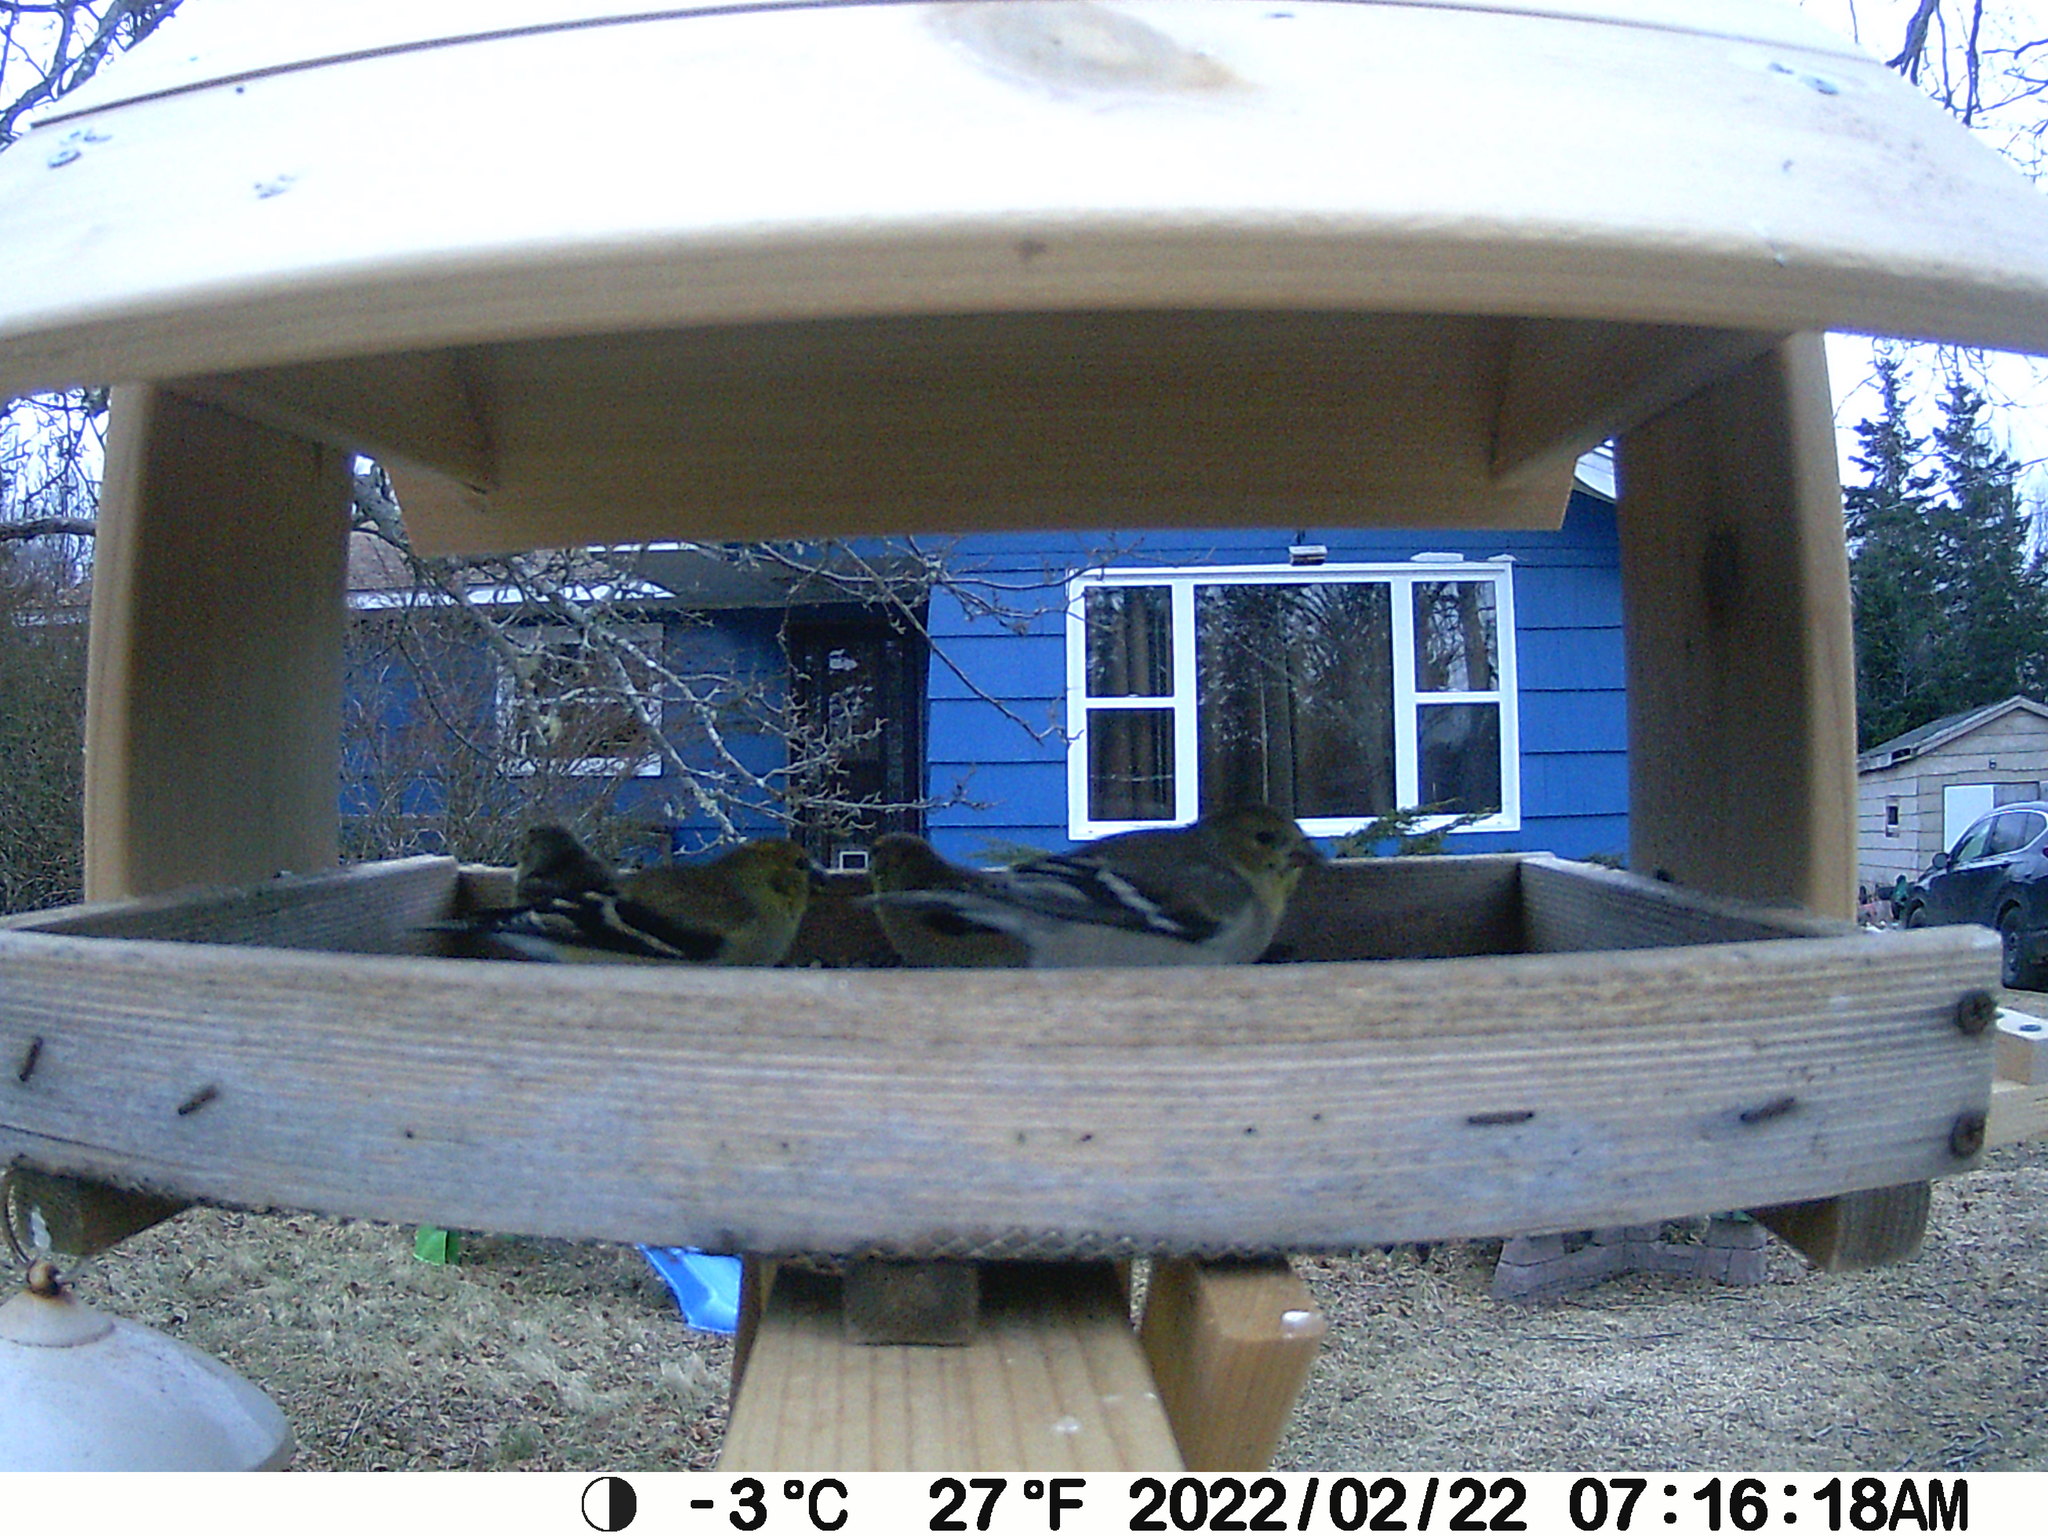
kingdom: Animalia
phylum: Chordata
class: Aves
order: Passeriformes
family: Fringillidae
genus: Spinus
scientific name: Spinus tristis
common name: American goldfinch
